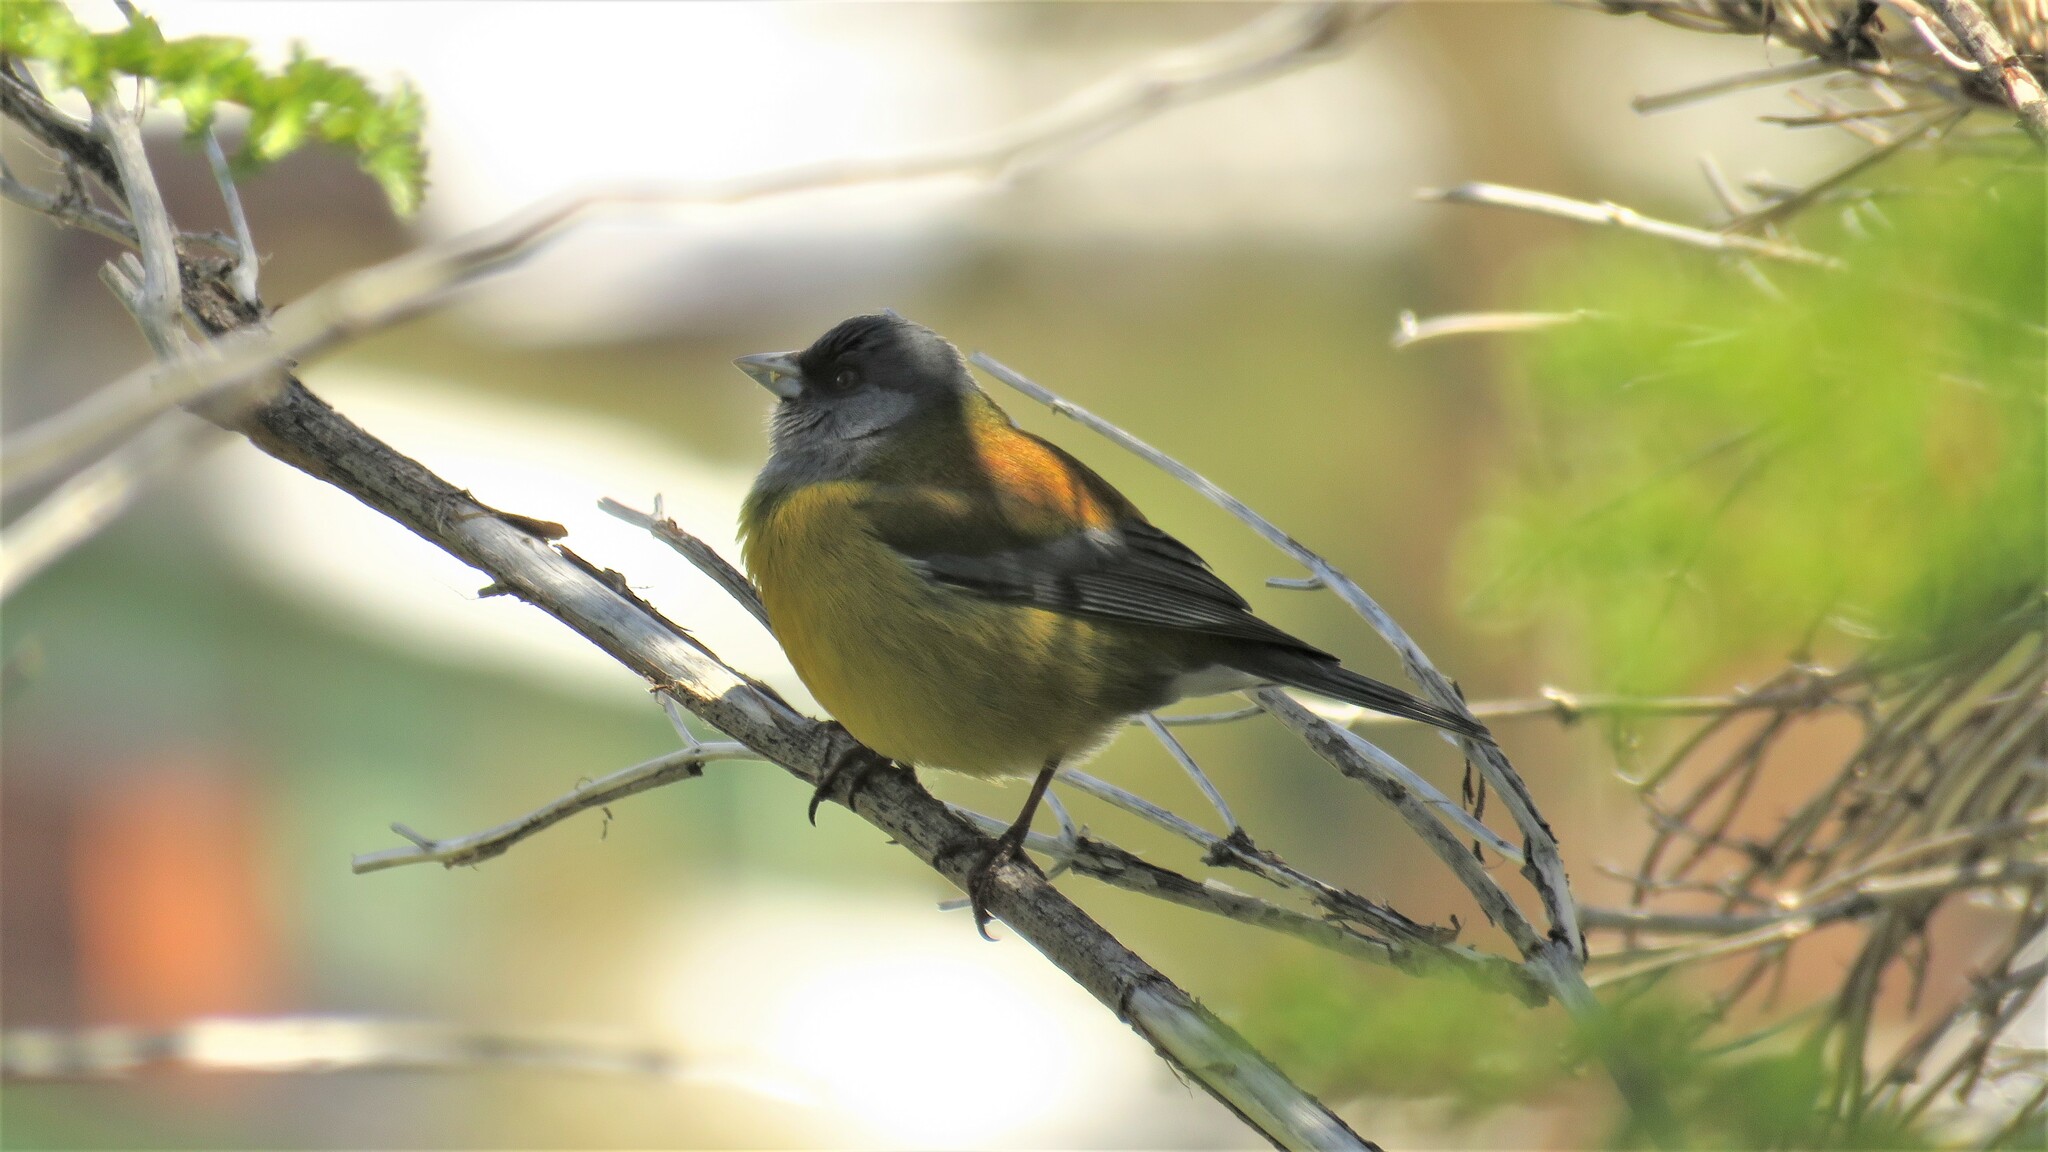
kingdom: Animalia
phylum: Chordata
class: Aves
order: Passeriformes
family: Thraupidae
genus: Phrygilus
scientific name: Phrygilus patagonicus
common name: Patagonian sierra finch
